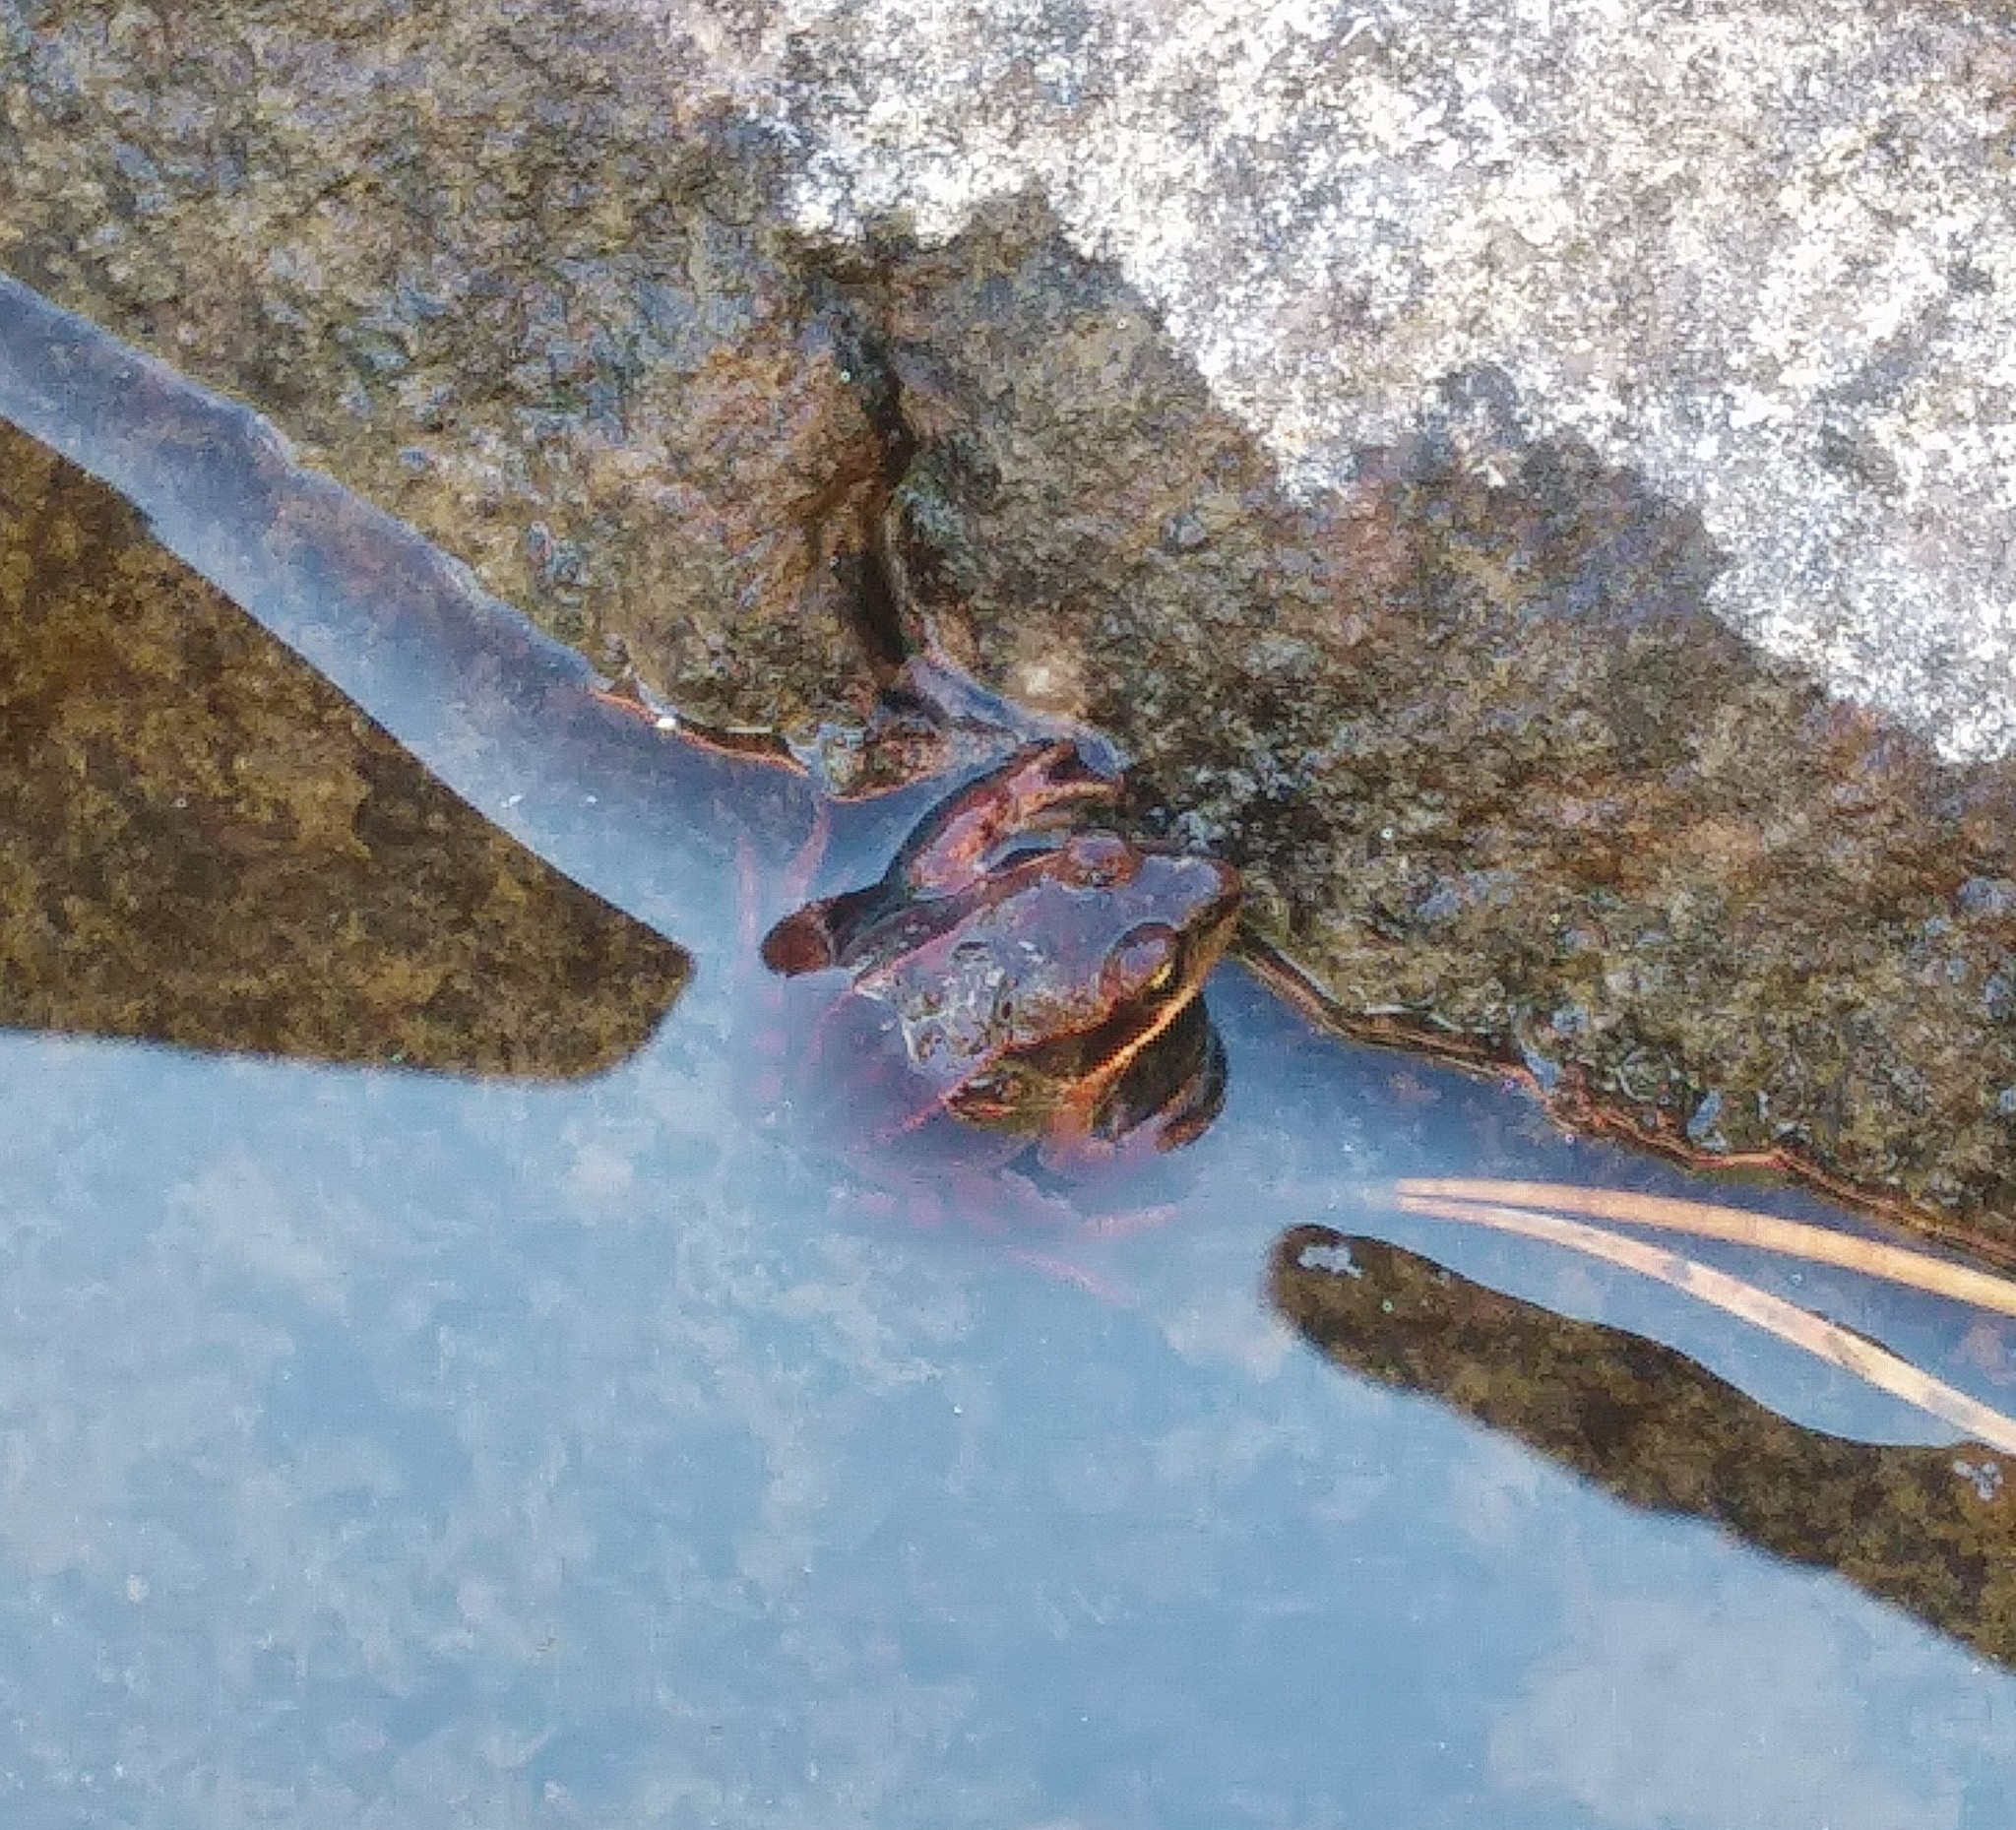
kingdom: Animalia
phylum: Chordata
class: Amphibia
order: Anura
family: Ranidae
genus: Rana
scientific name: Rana temporaria
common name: Common frog
